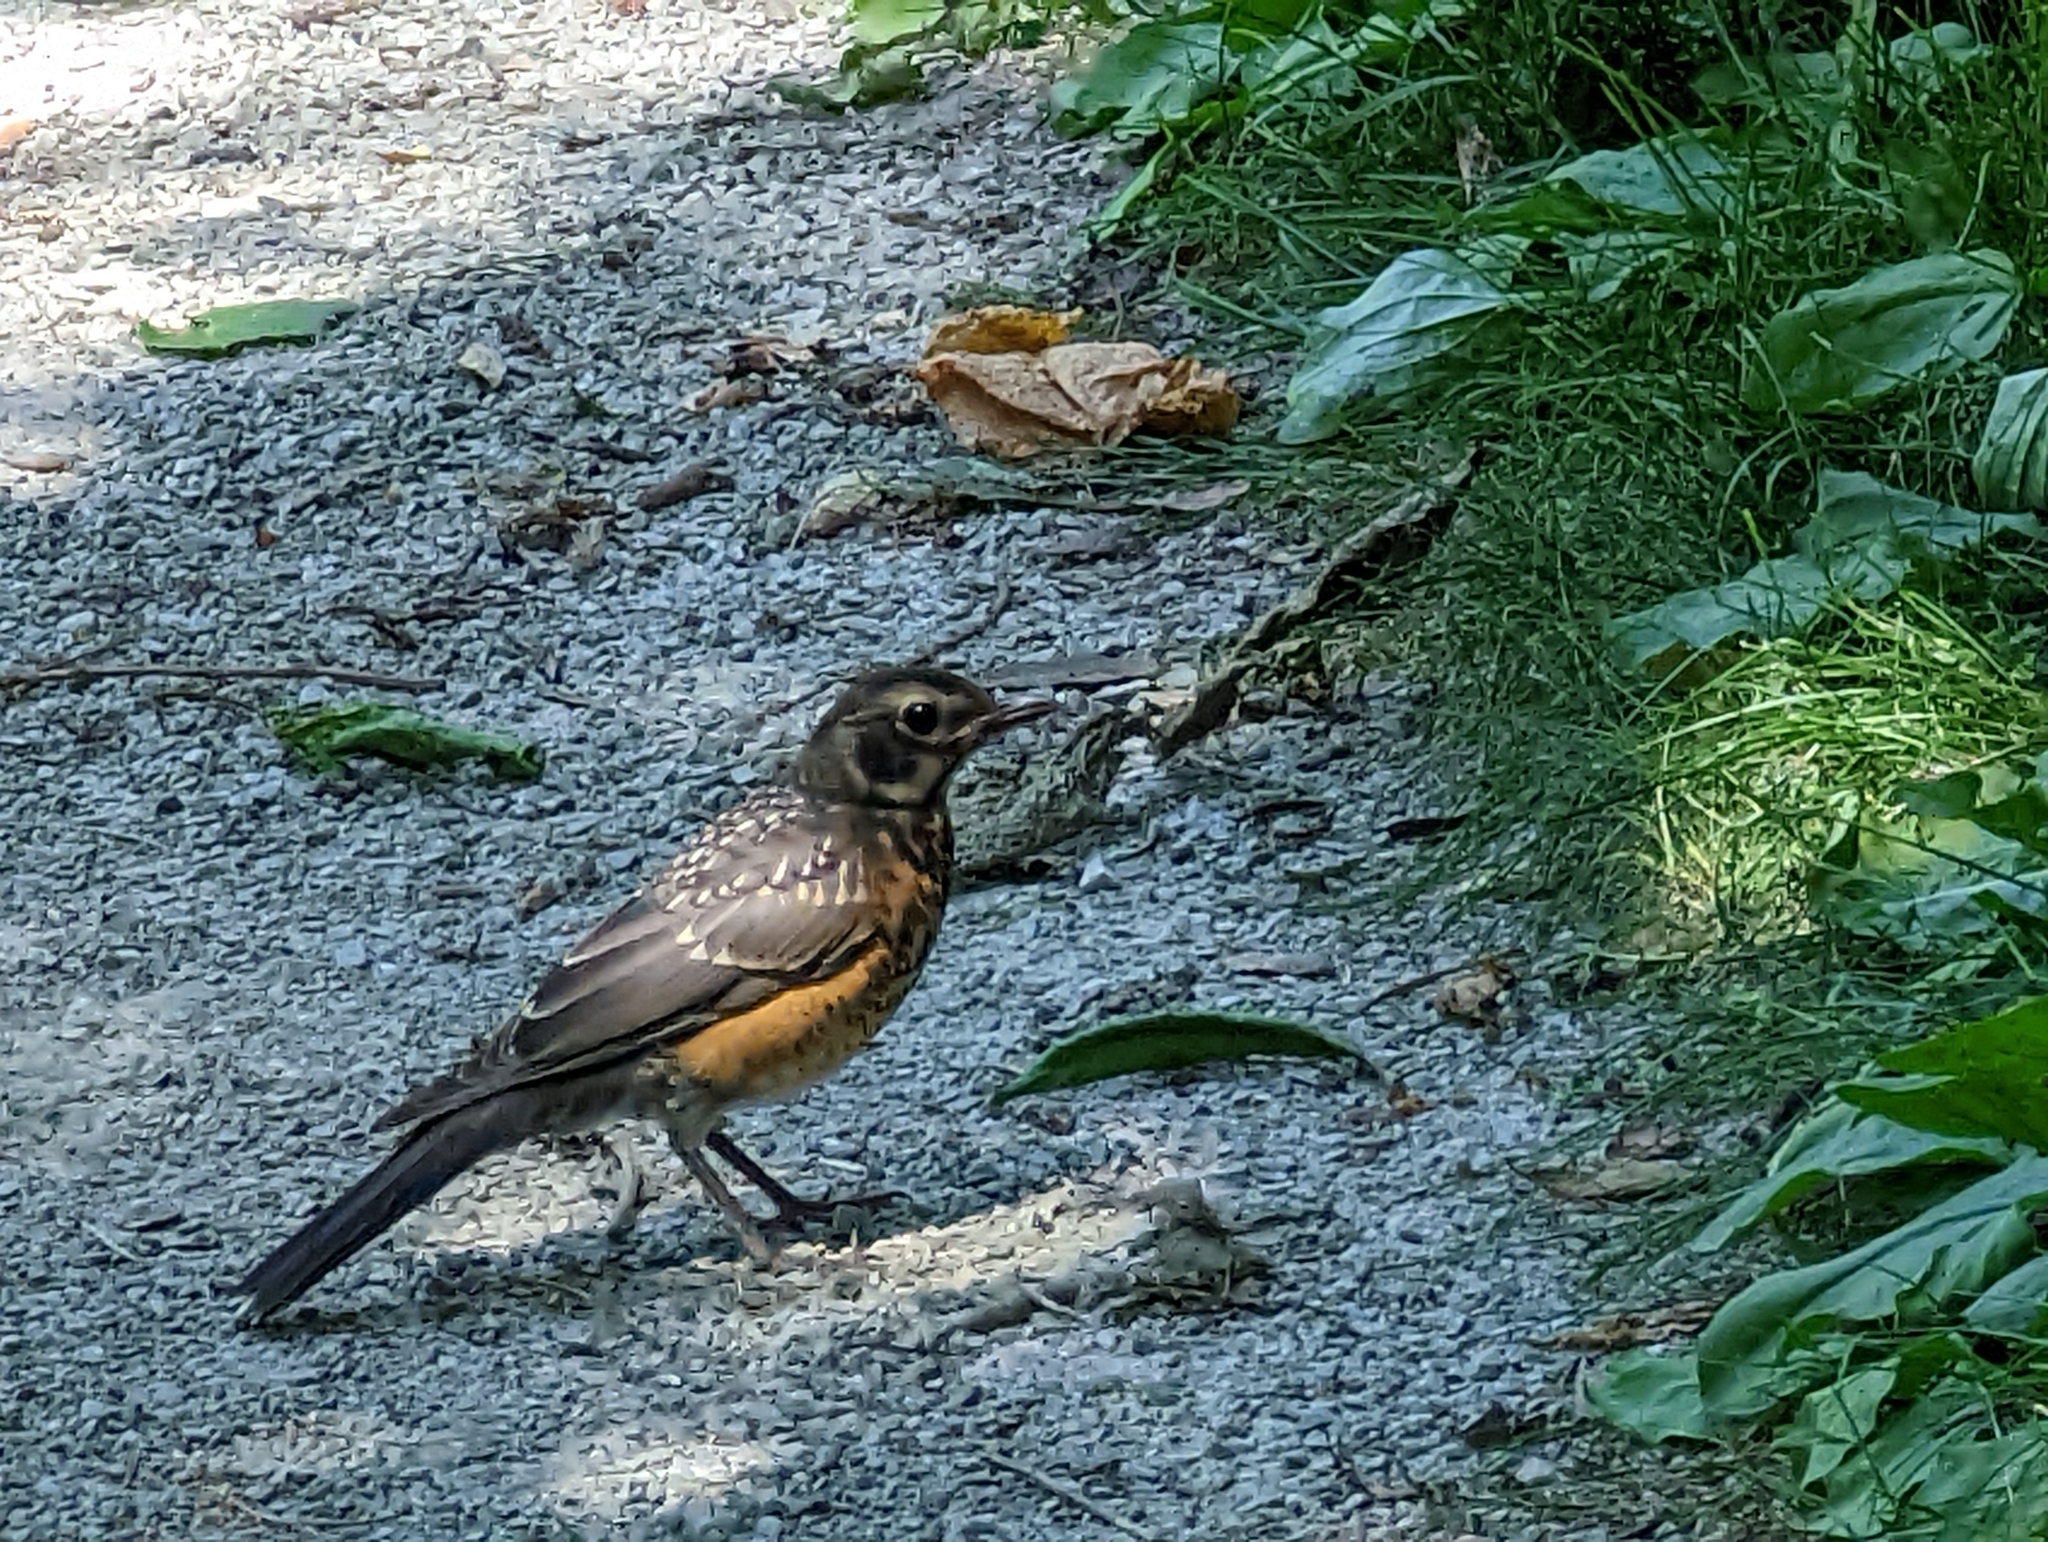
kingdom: Animalia
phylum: Chordata
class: Aves
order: Passeriformes
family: Turdidae
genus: Turdus
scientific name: Turdus migratorius
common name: American robin
